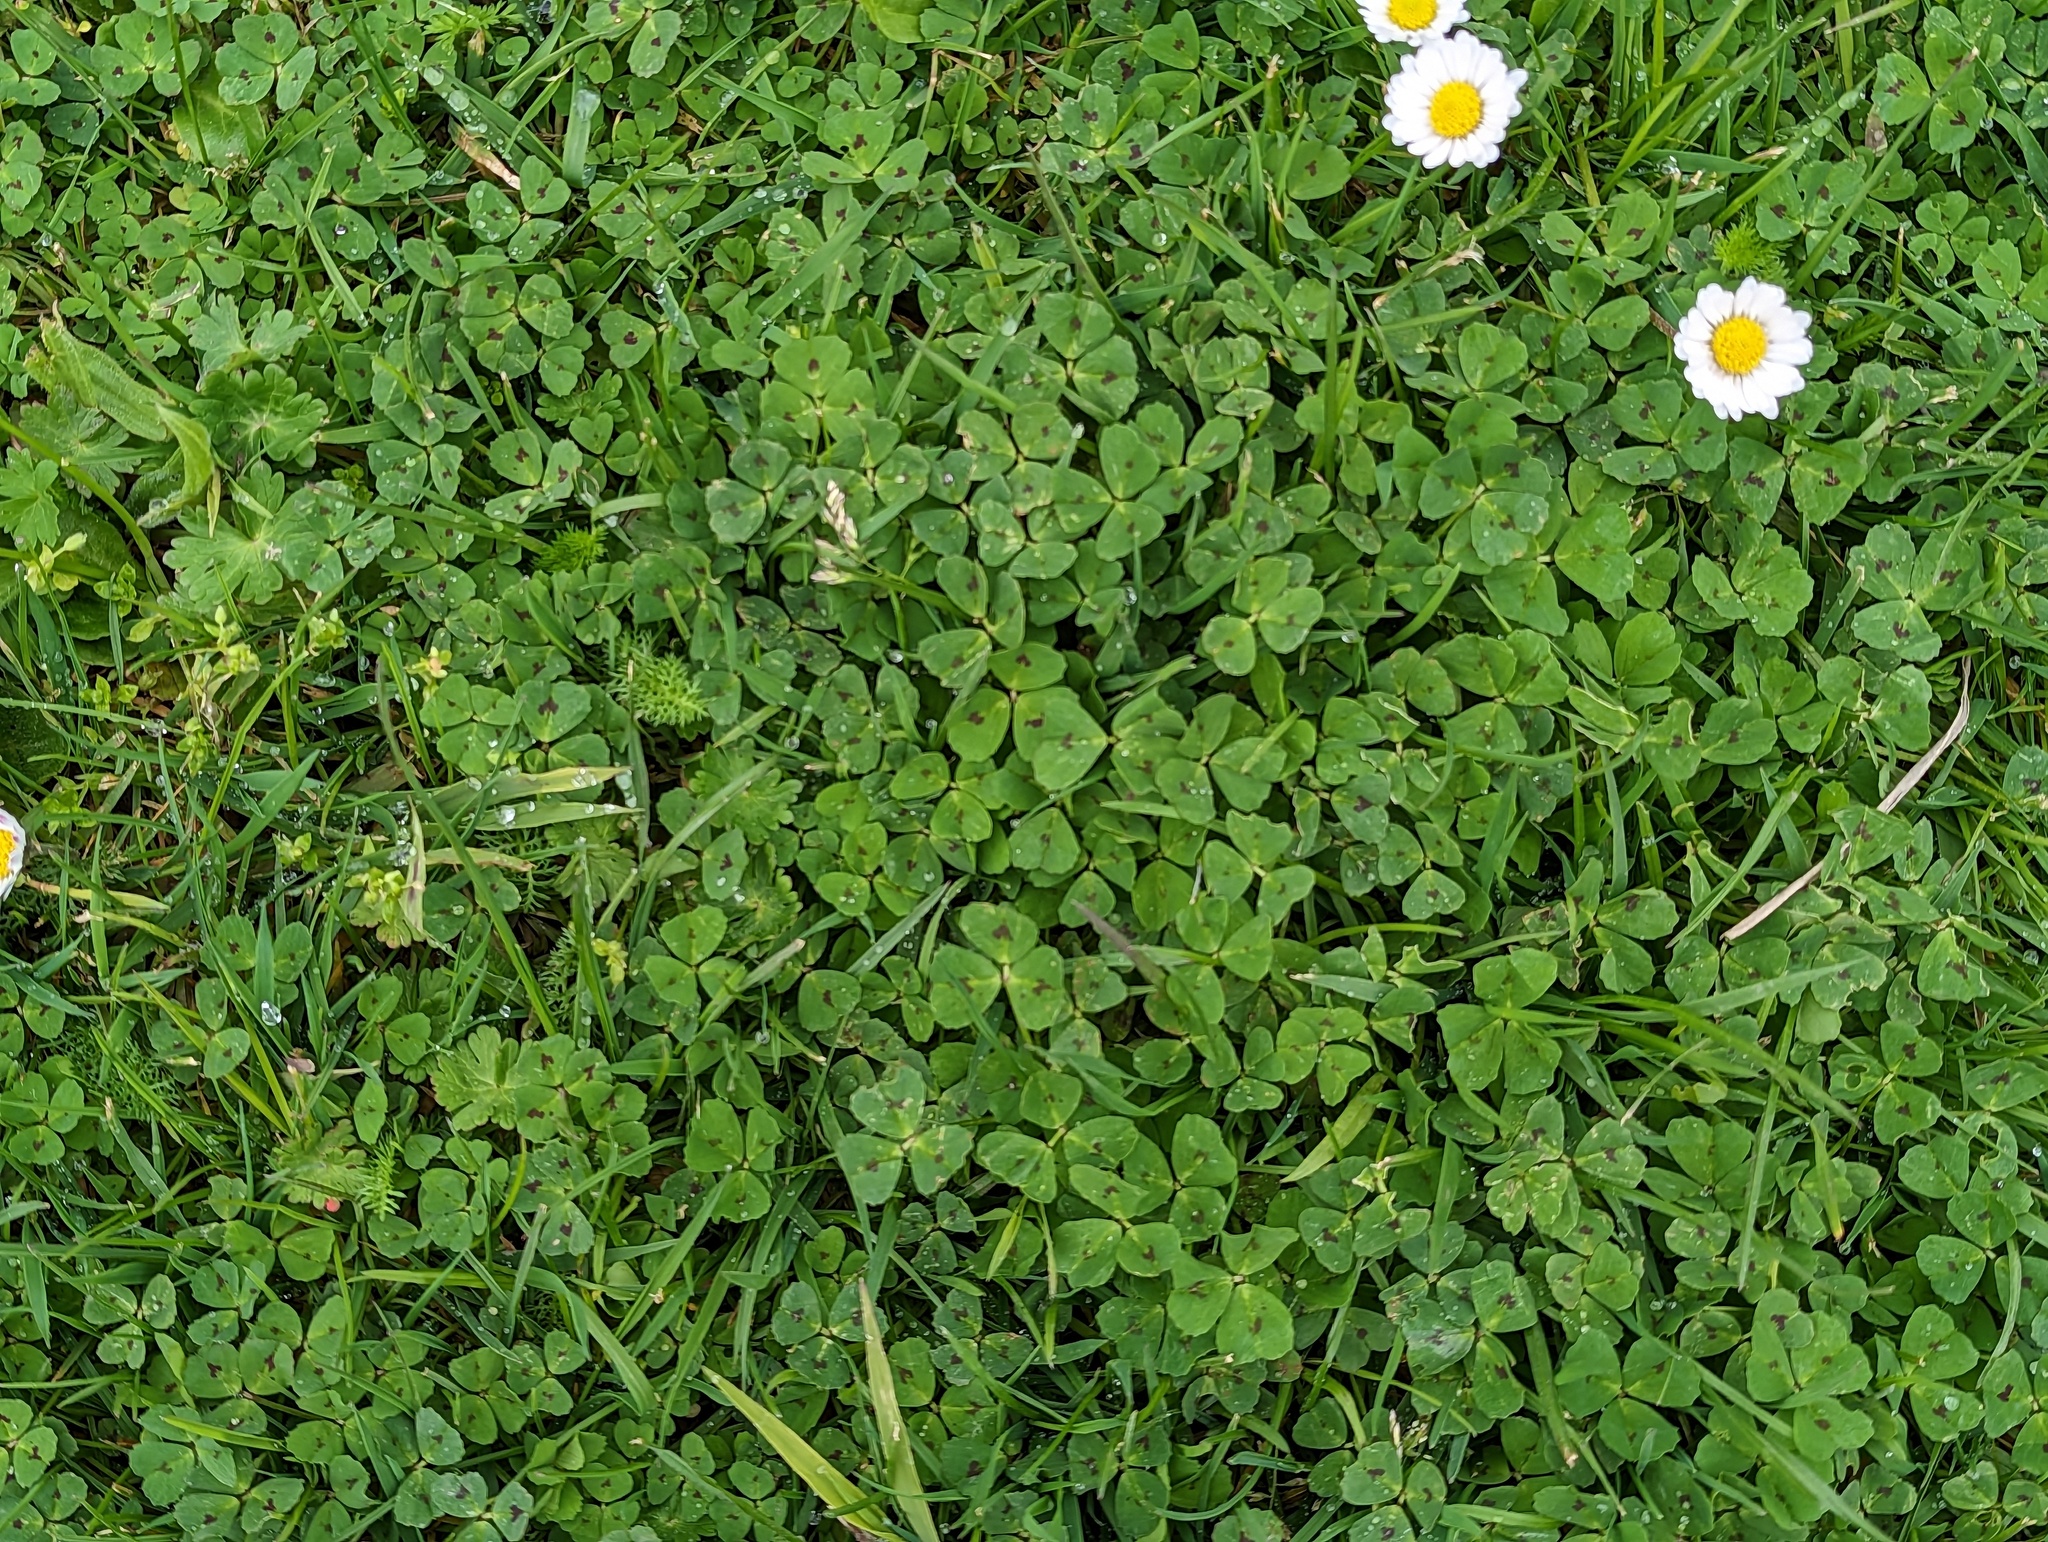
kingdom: Plantae
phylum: Tracheophyta
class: Magnoliopsida
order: Fabales
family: Fabaceae
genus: Medicago
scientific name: Medicago arabica
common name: Spotted medick
